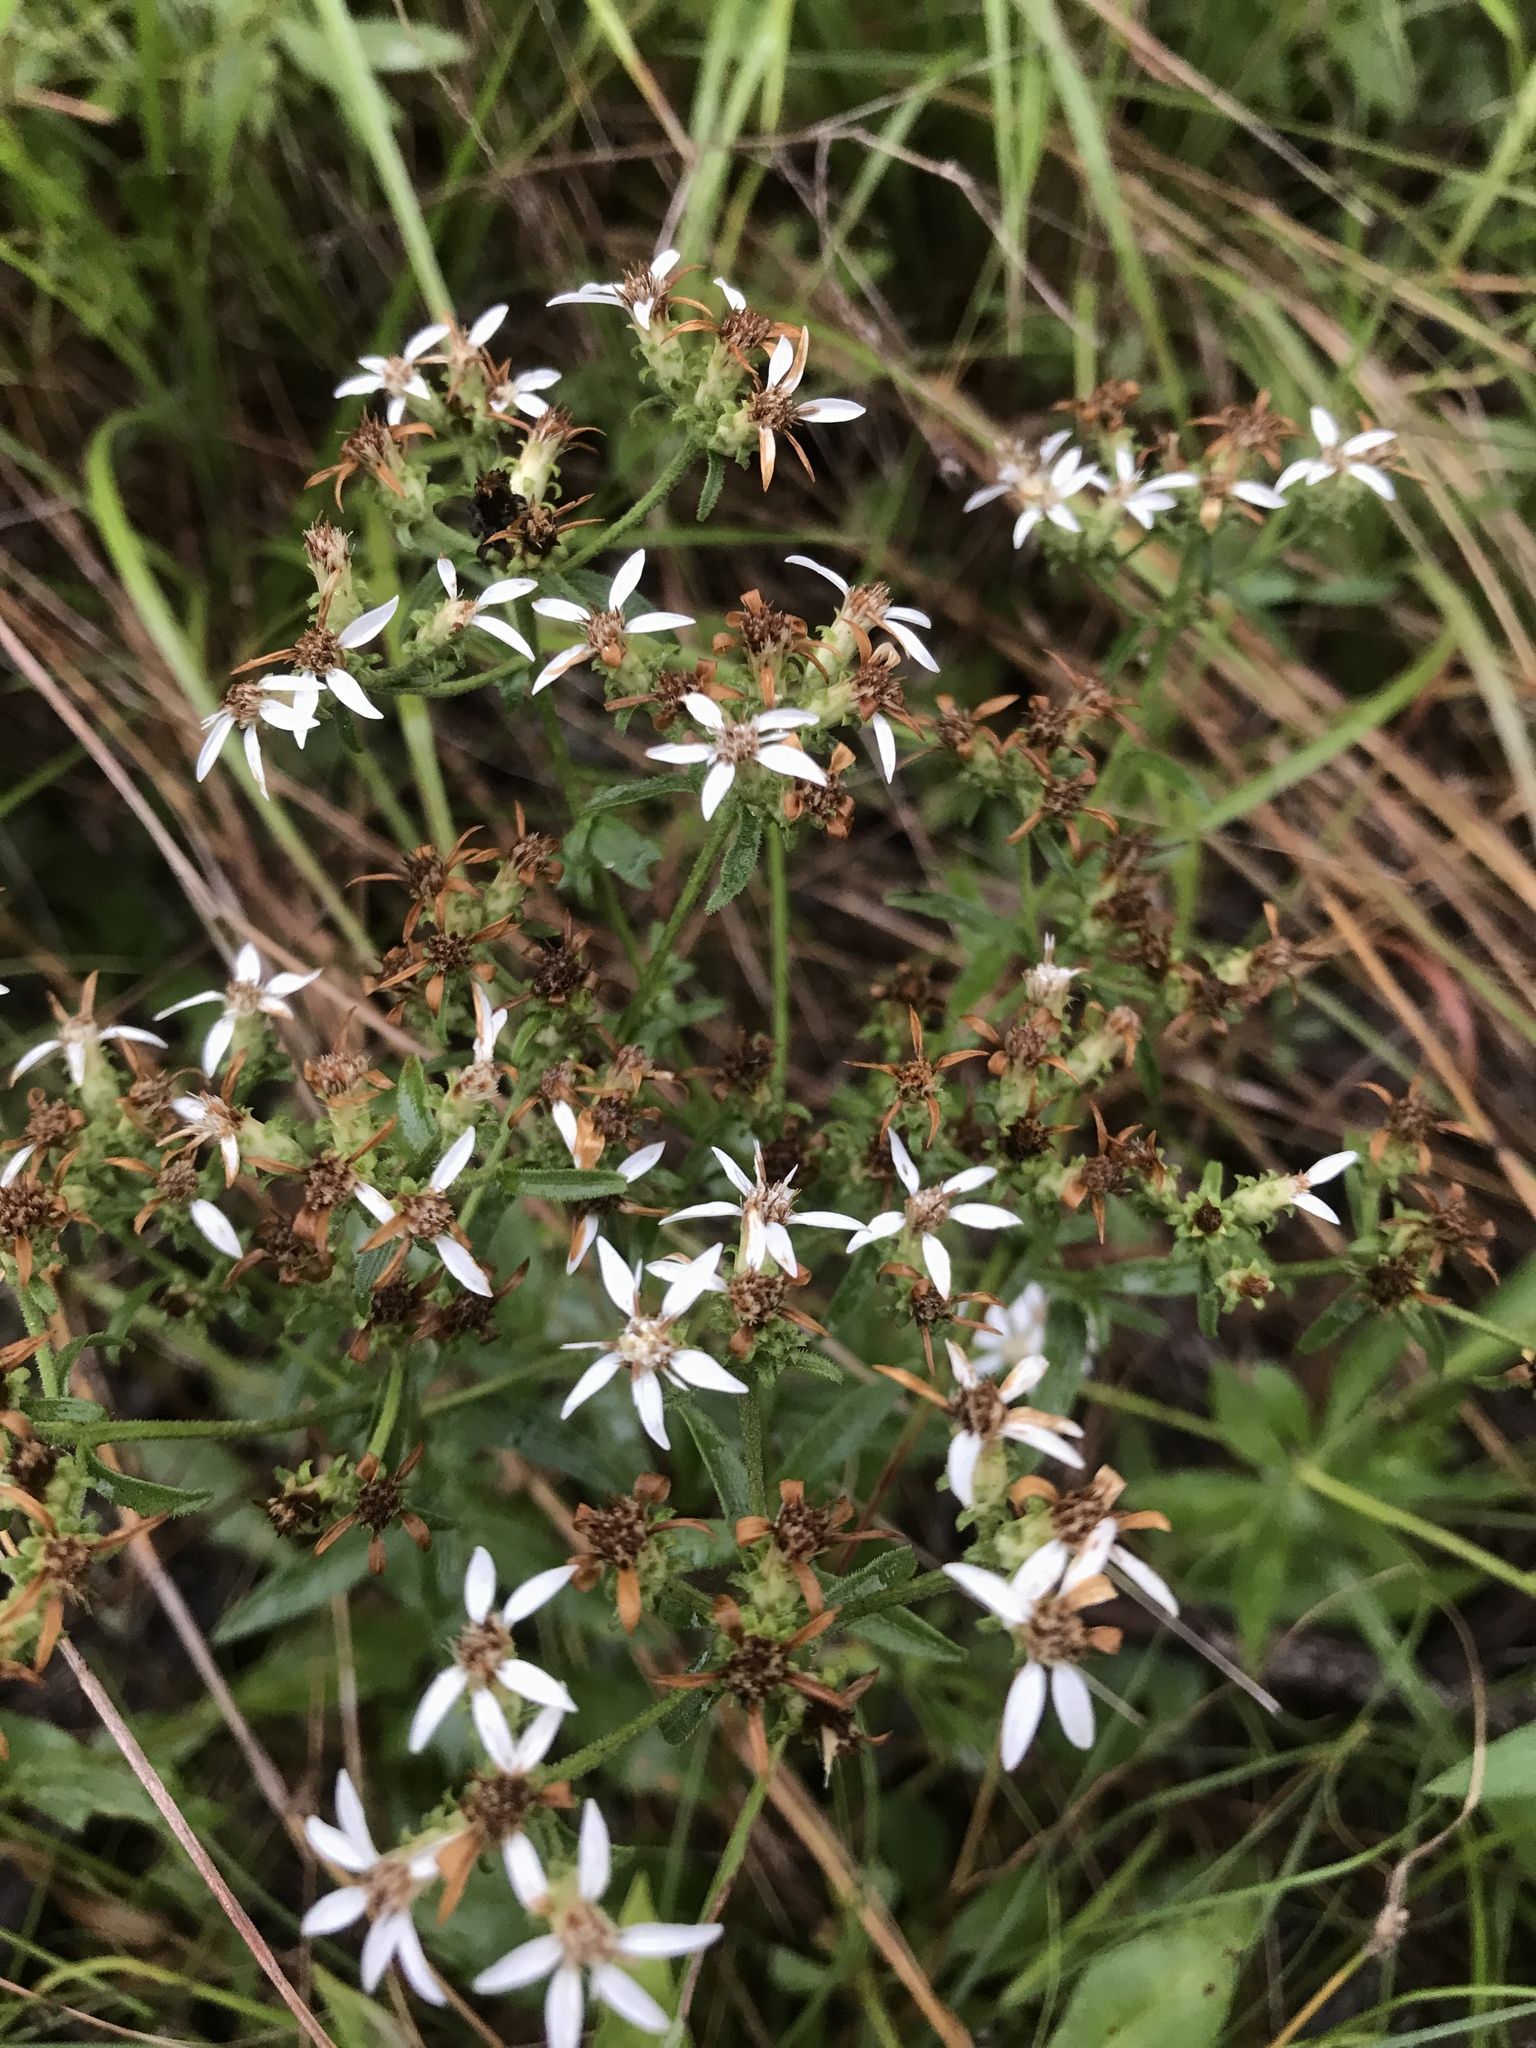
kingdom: Plantae
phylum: Tracheophyta
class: Magnoliopsida
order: Asterales
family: Asteraceae
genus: Sericocarpus
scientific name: Sericocarpus asteroides
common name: Toothed white-top aster
